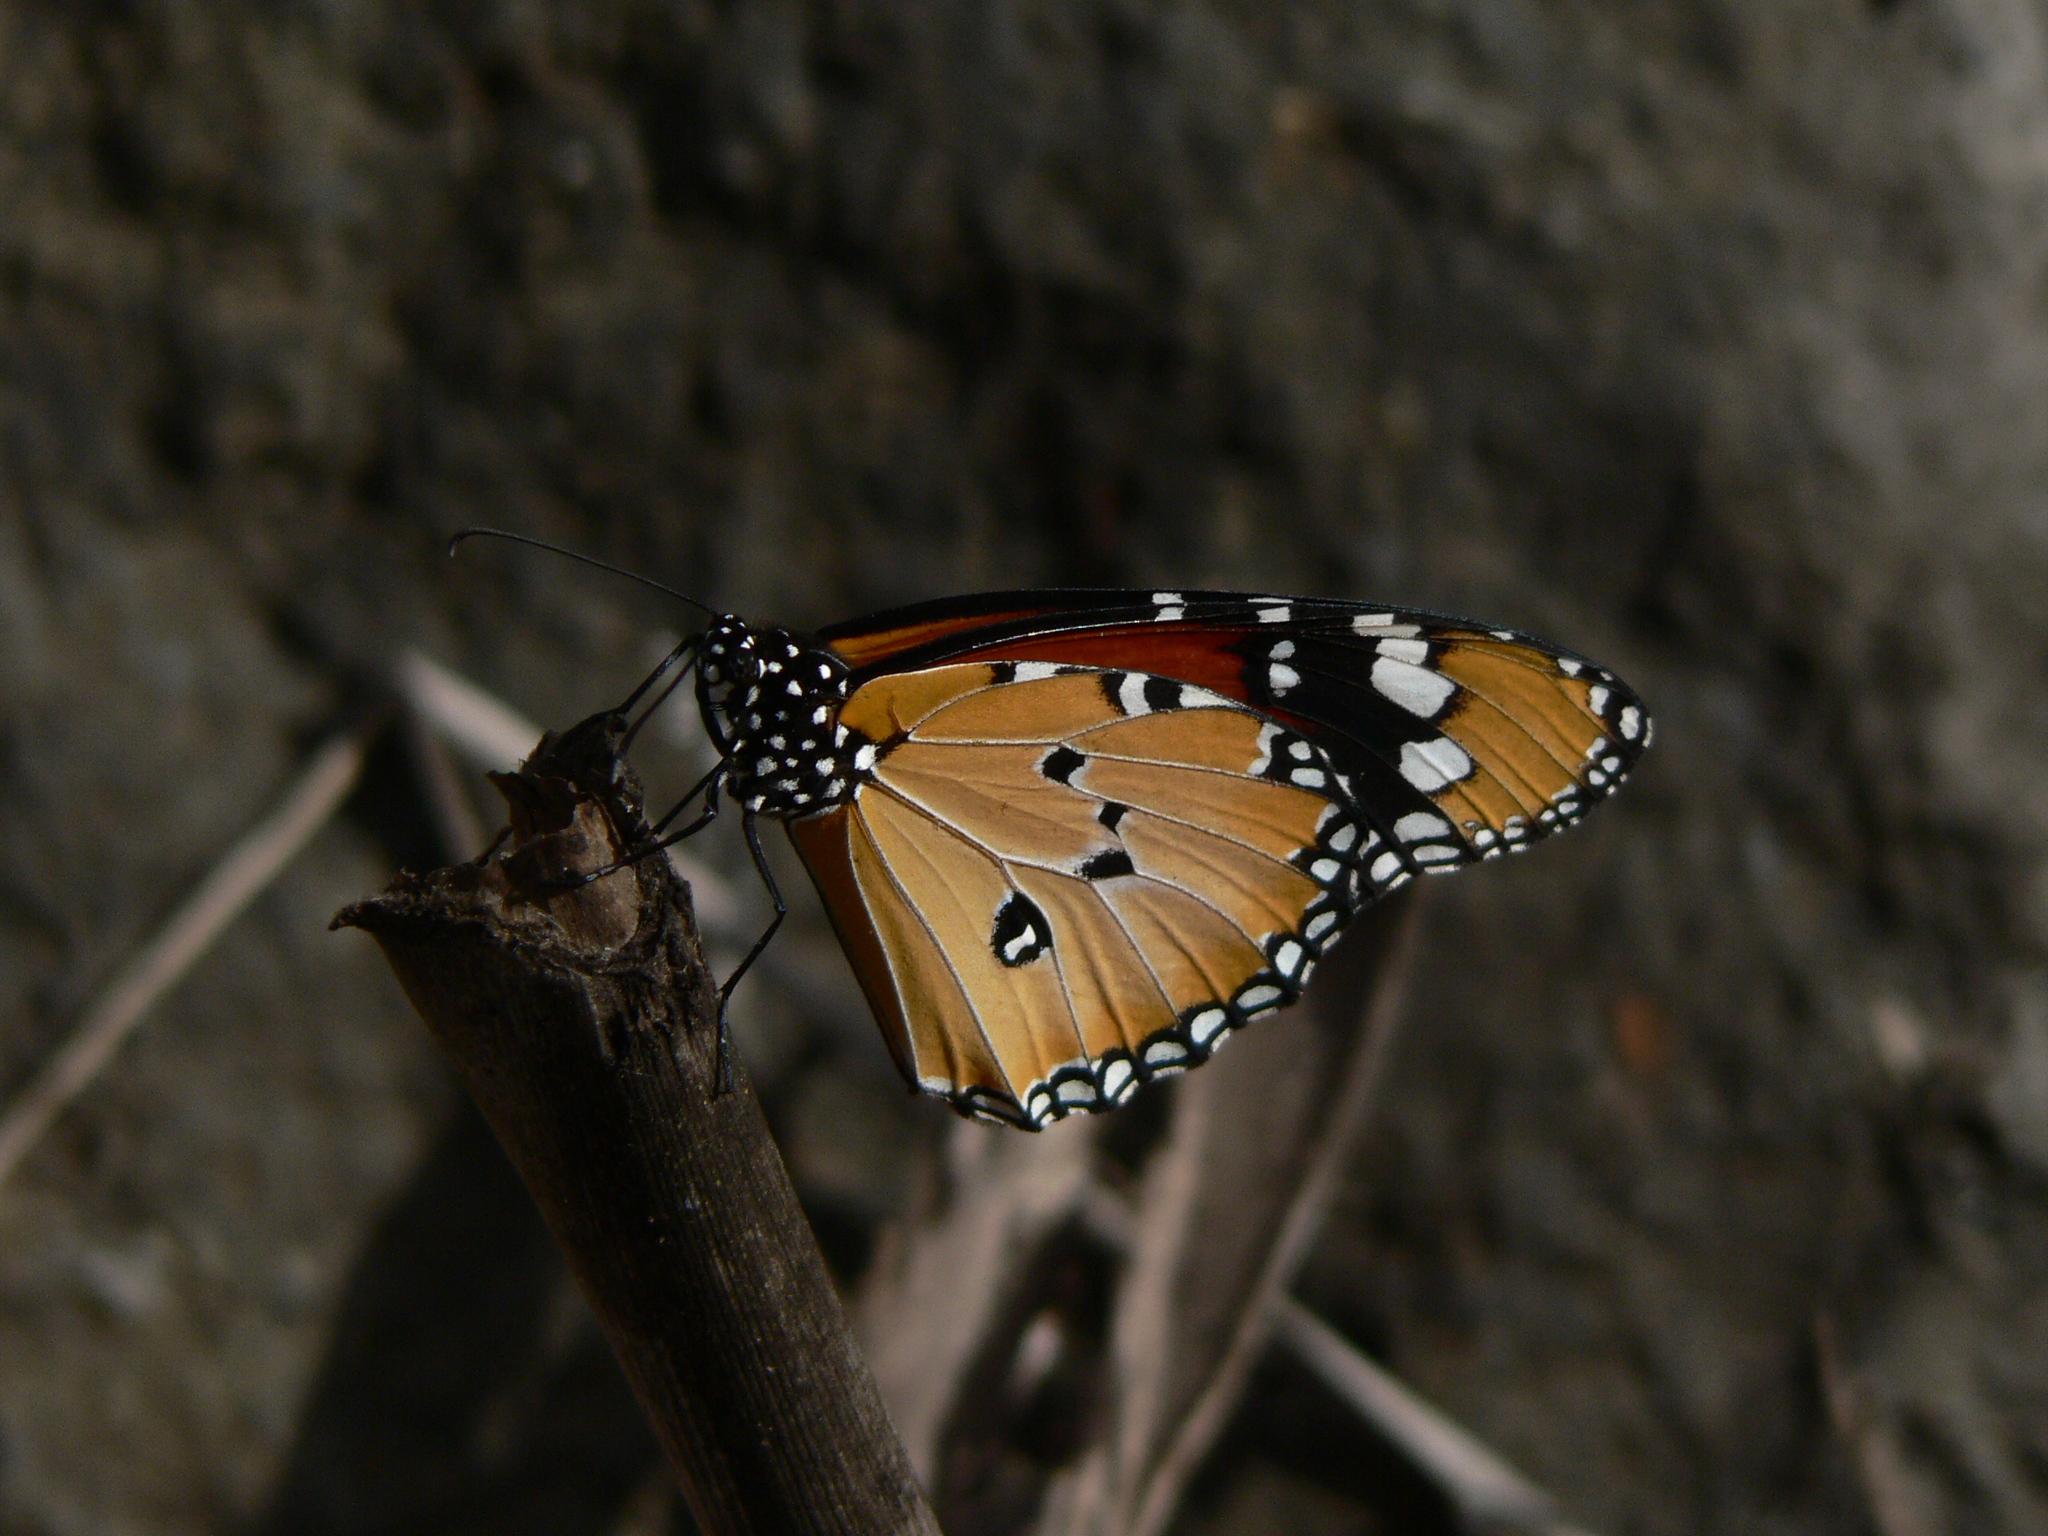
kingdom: Animalia
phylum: Arthropoda
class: Insecta
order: Lepidoptera
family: Nymphalidae
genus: Danaus
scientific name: Danaus chrysippus
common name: Plain tiger
